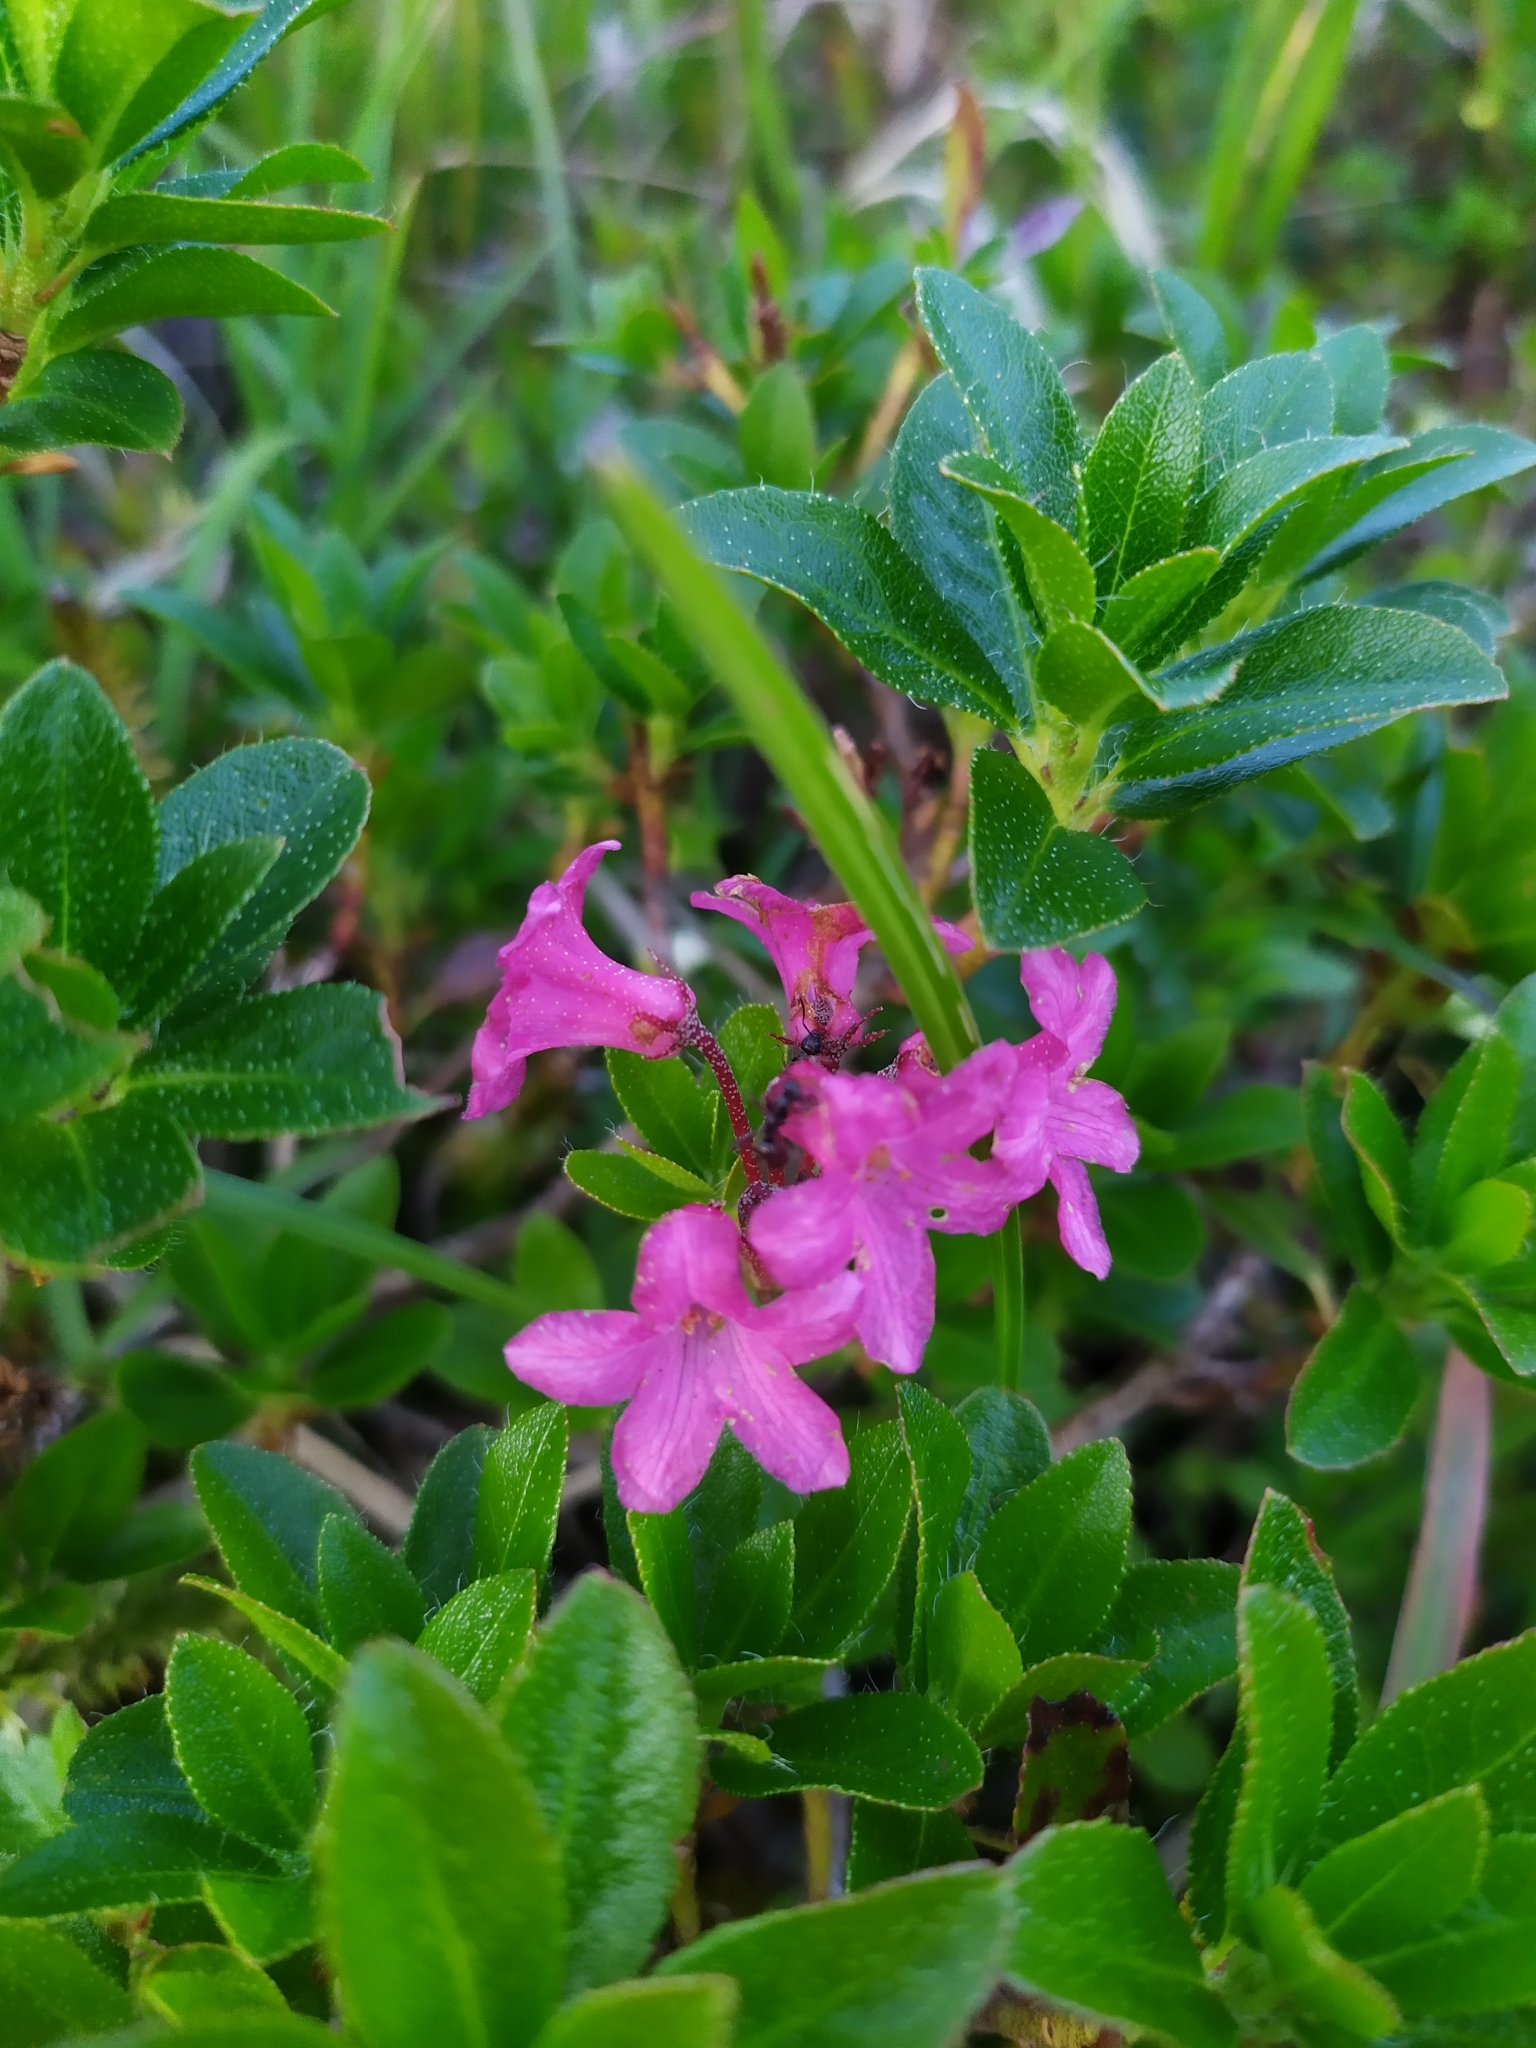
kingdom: Plantae
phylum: Tracheophyta
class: Magnoliopsida
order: Ericales
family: Ericaceae
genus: Rhododendron
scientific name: Rhododendron hirsutum
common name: Hairy alpenrose
